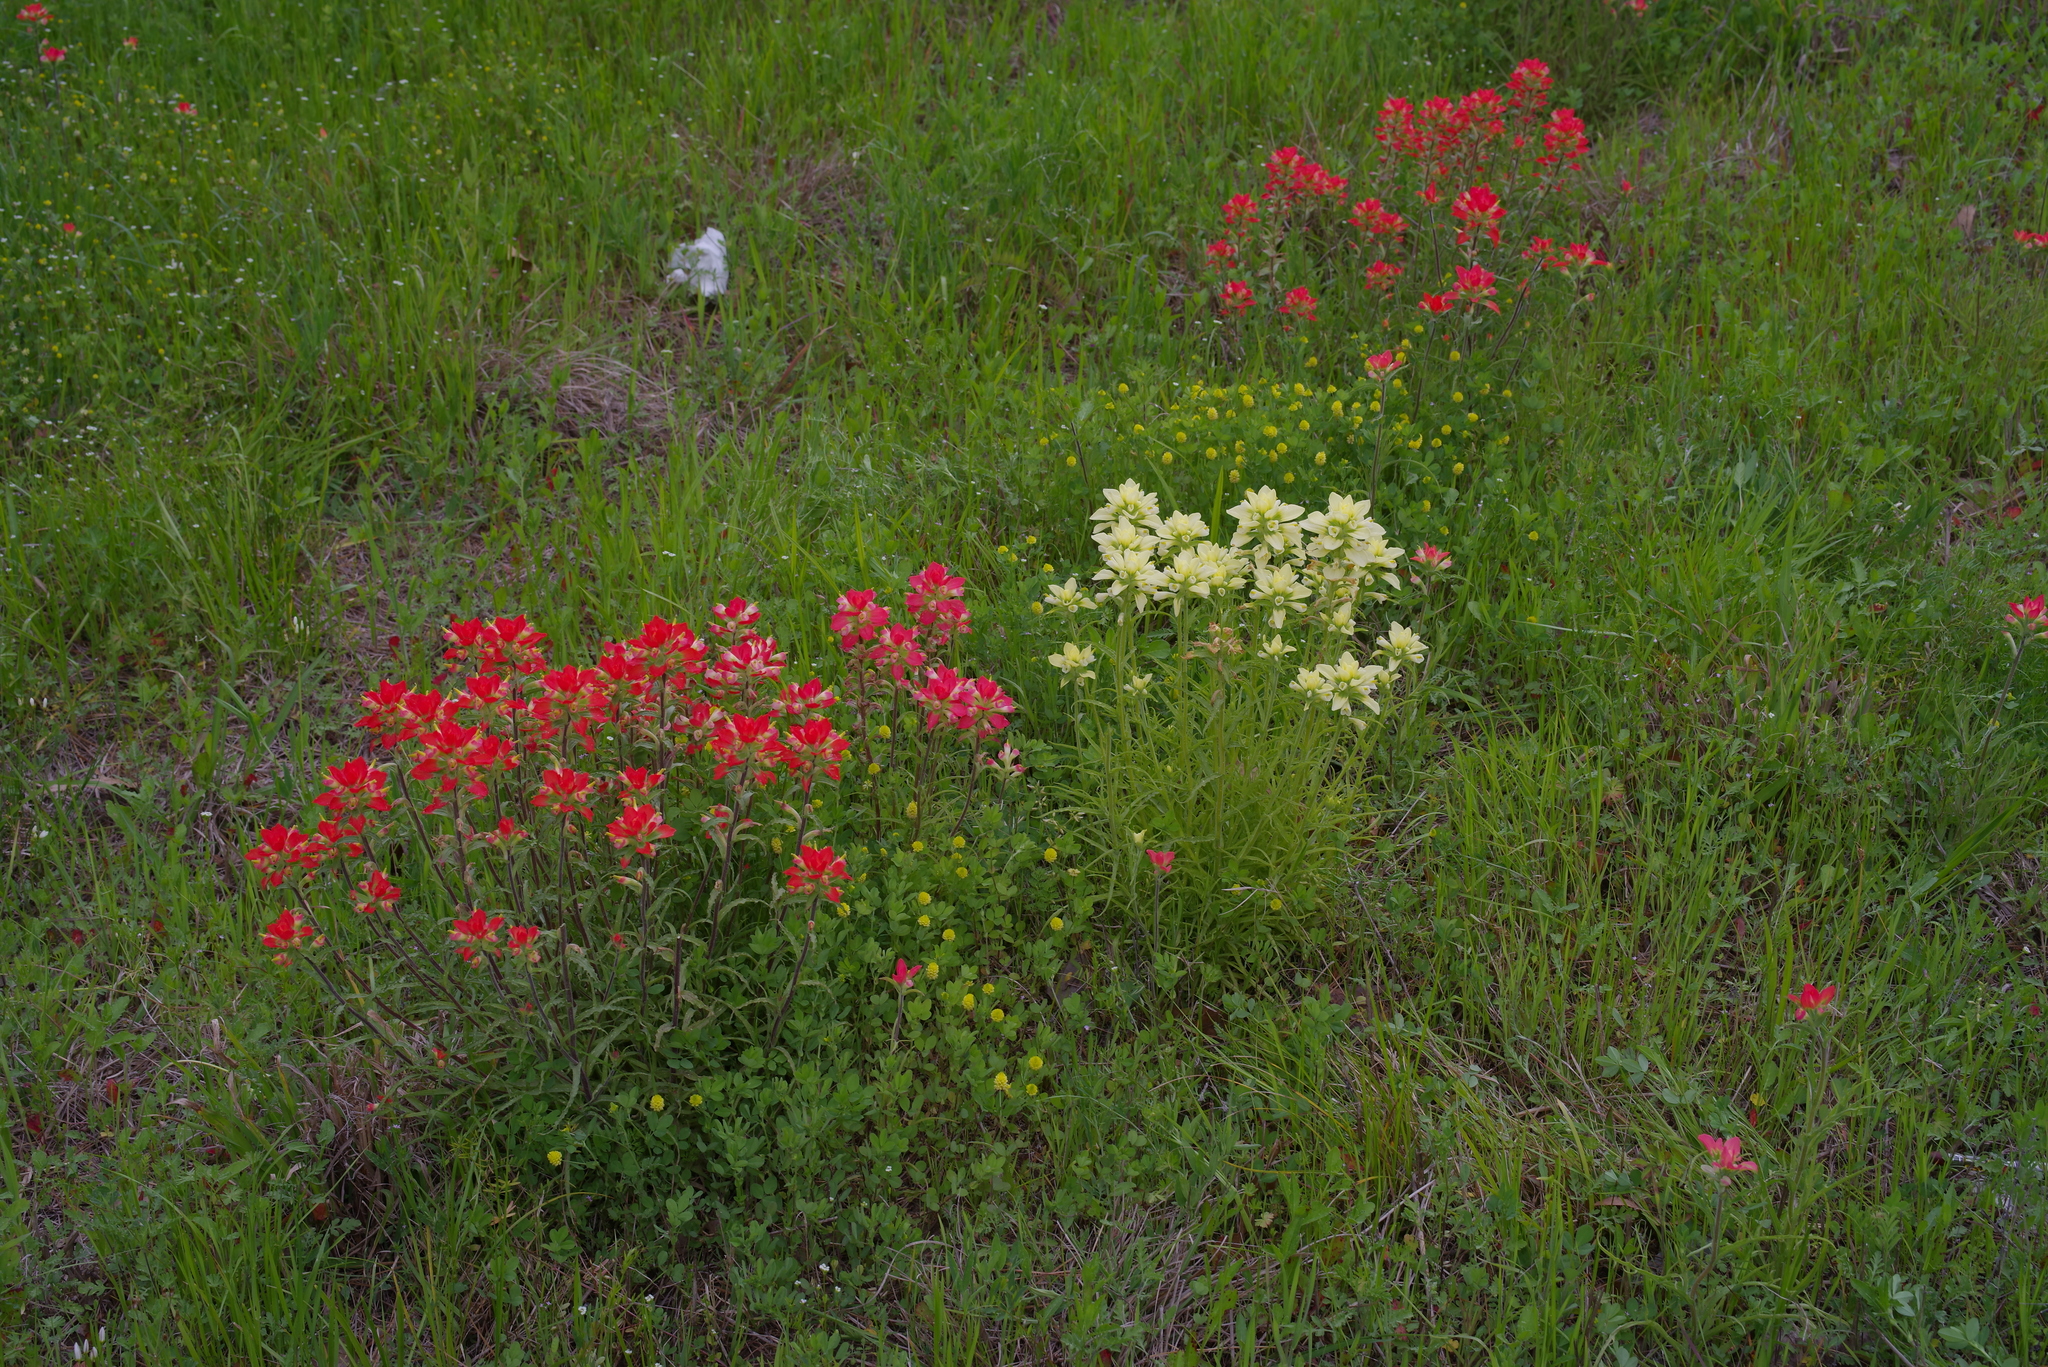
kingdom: Plantae
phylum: Tracheophyta
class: Magnoliopsida
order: Lamiales
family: Orobanchaceae
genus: Castilleja
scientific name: Castilleja indivisa
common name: Texas paintbrush
